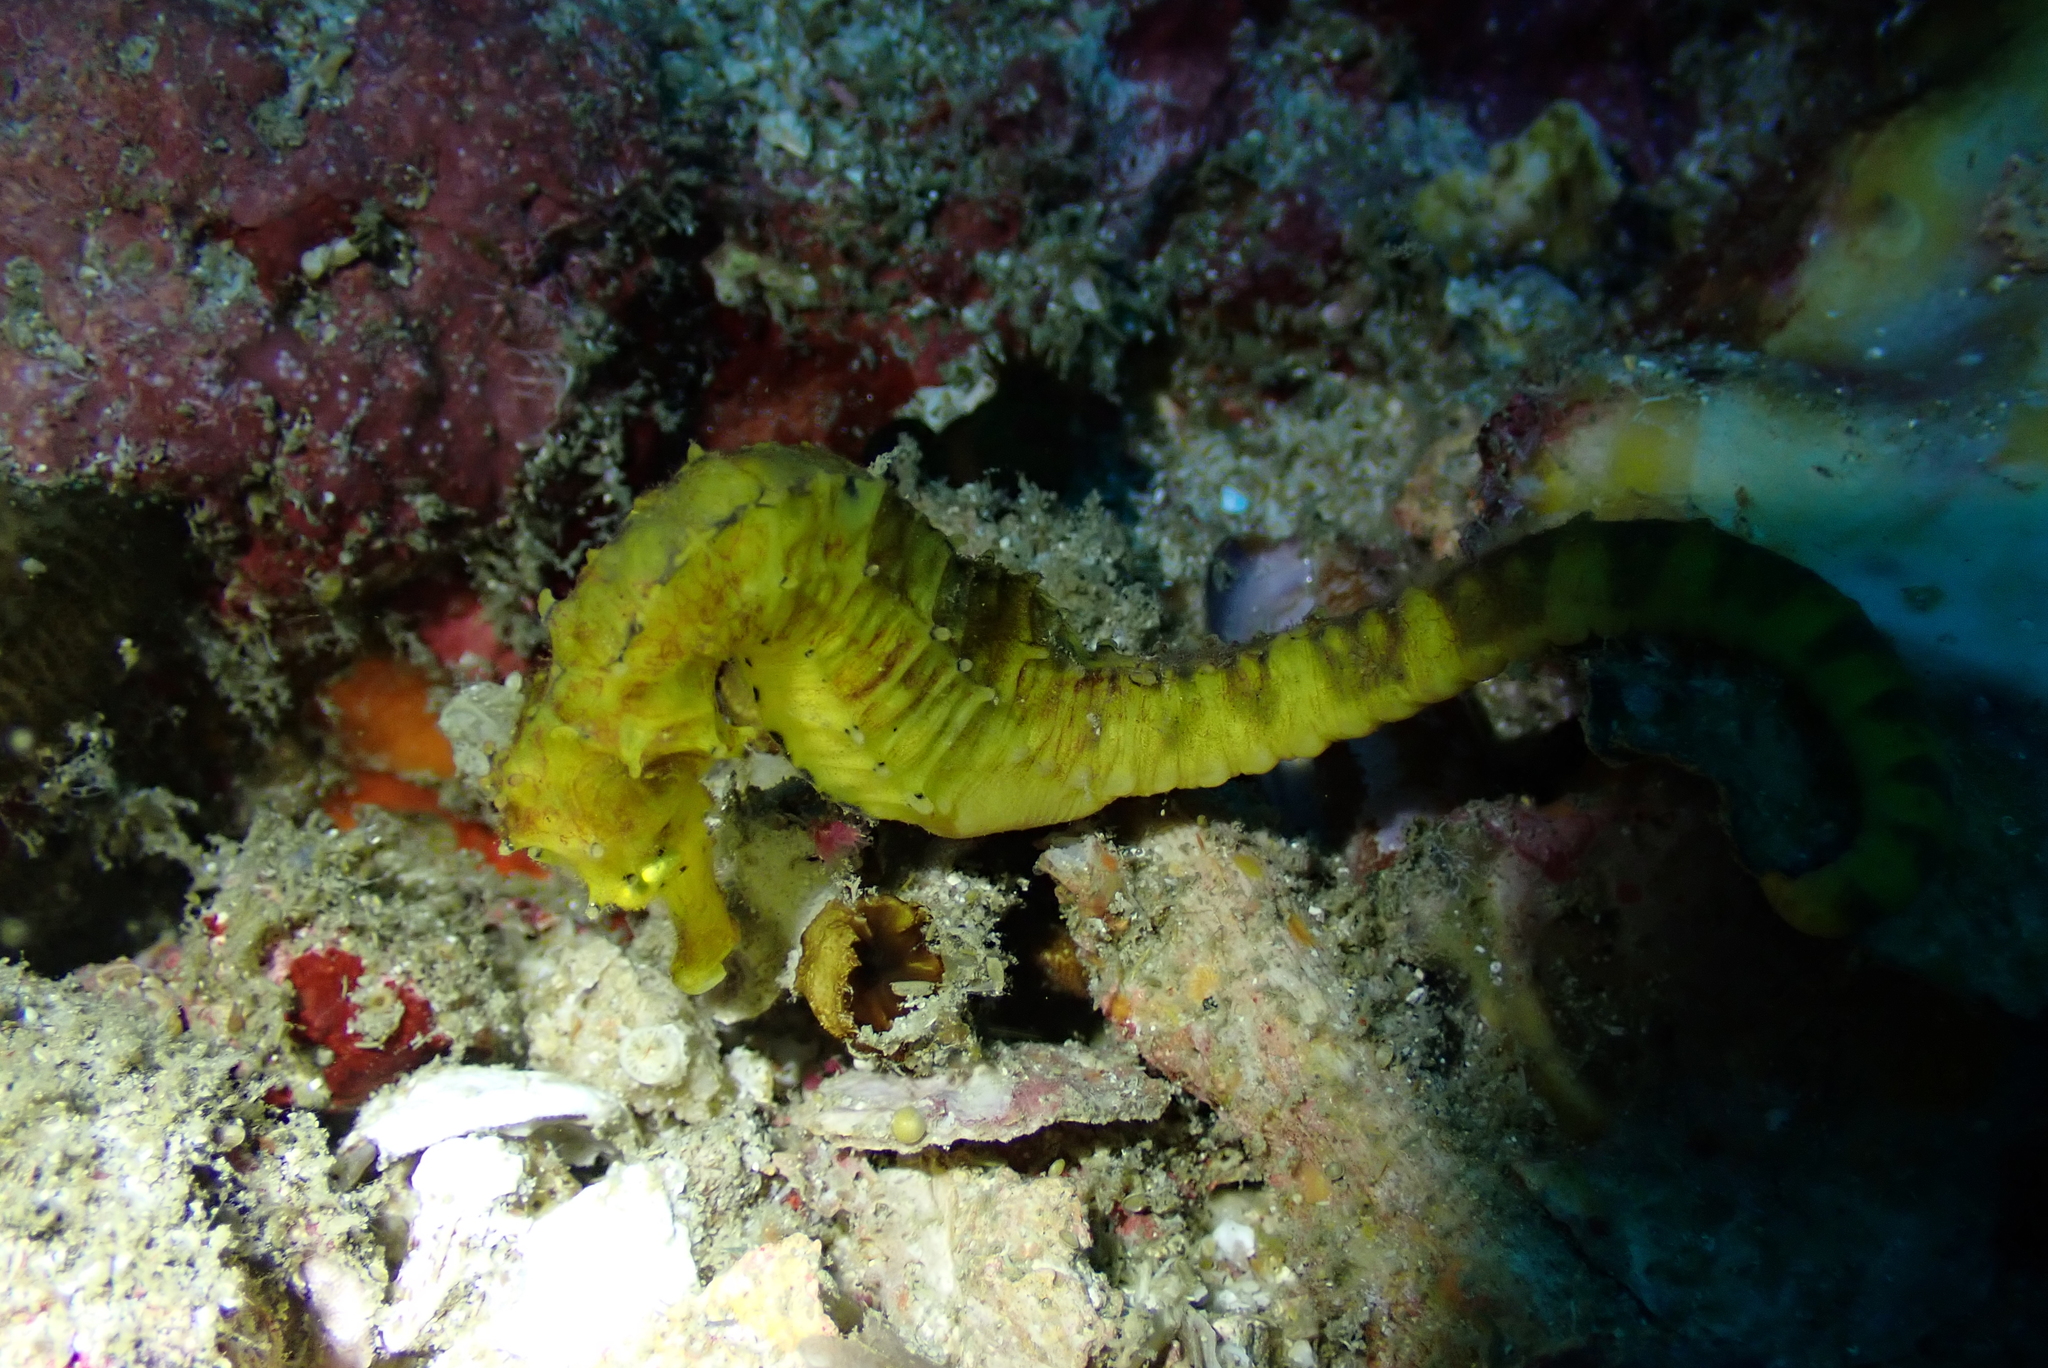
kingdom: Animalia
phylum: Chordata
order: Syngnathiformes
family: Syngnathidae
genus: Hippocampus
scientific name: Hippocampus comes
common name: Tiger tail seahorse
